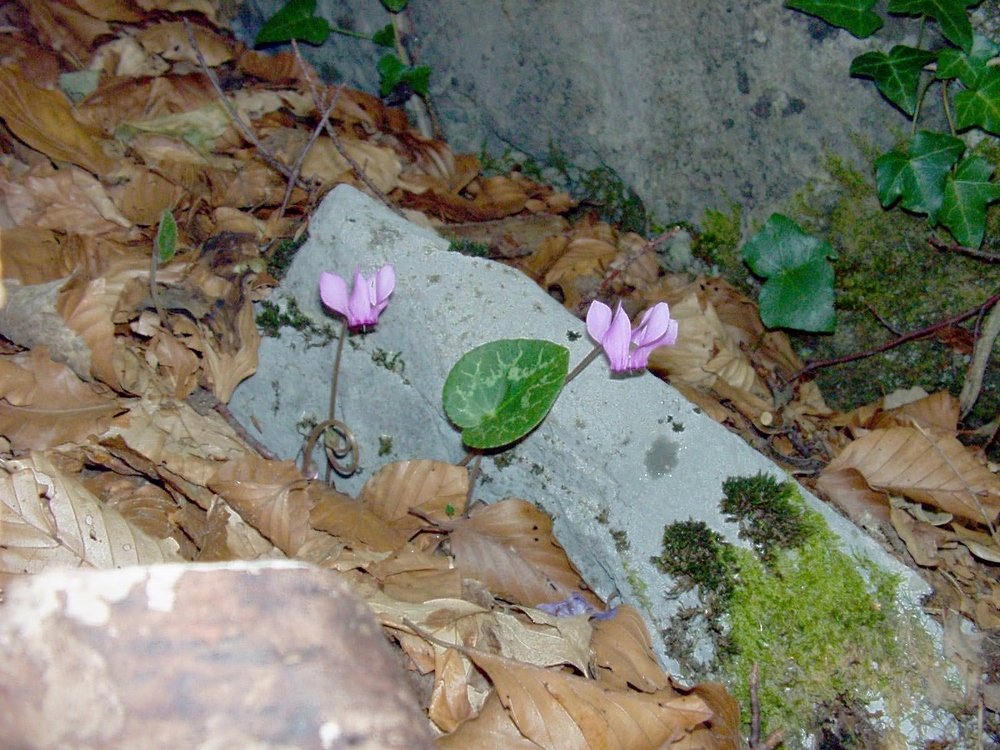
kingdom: Plantae
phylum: Tracheophyta
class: Magnoliopsida
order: Ericales
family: Primulaceae
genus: Cyclamen
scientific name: Cyclamen purpurascens
